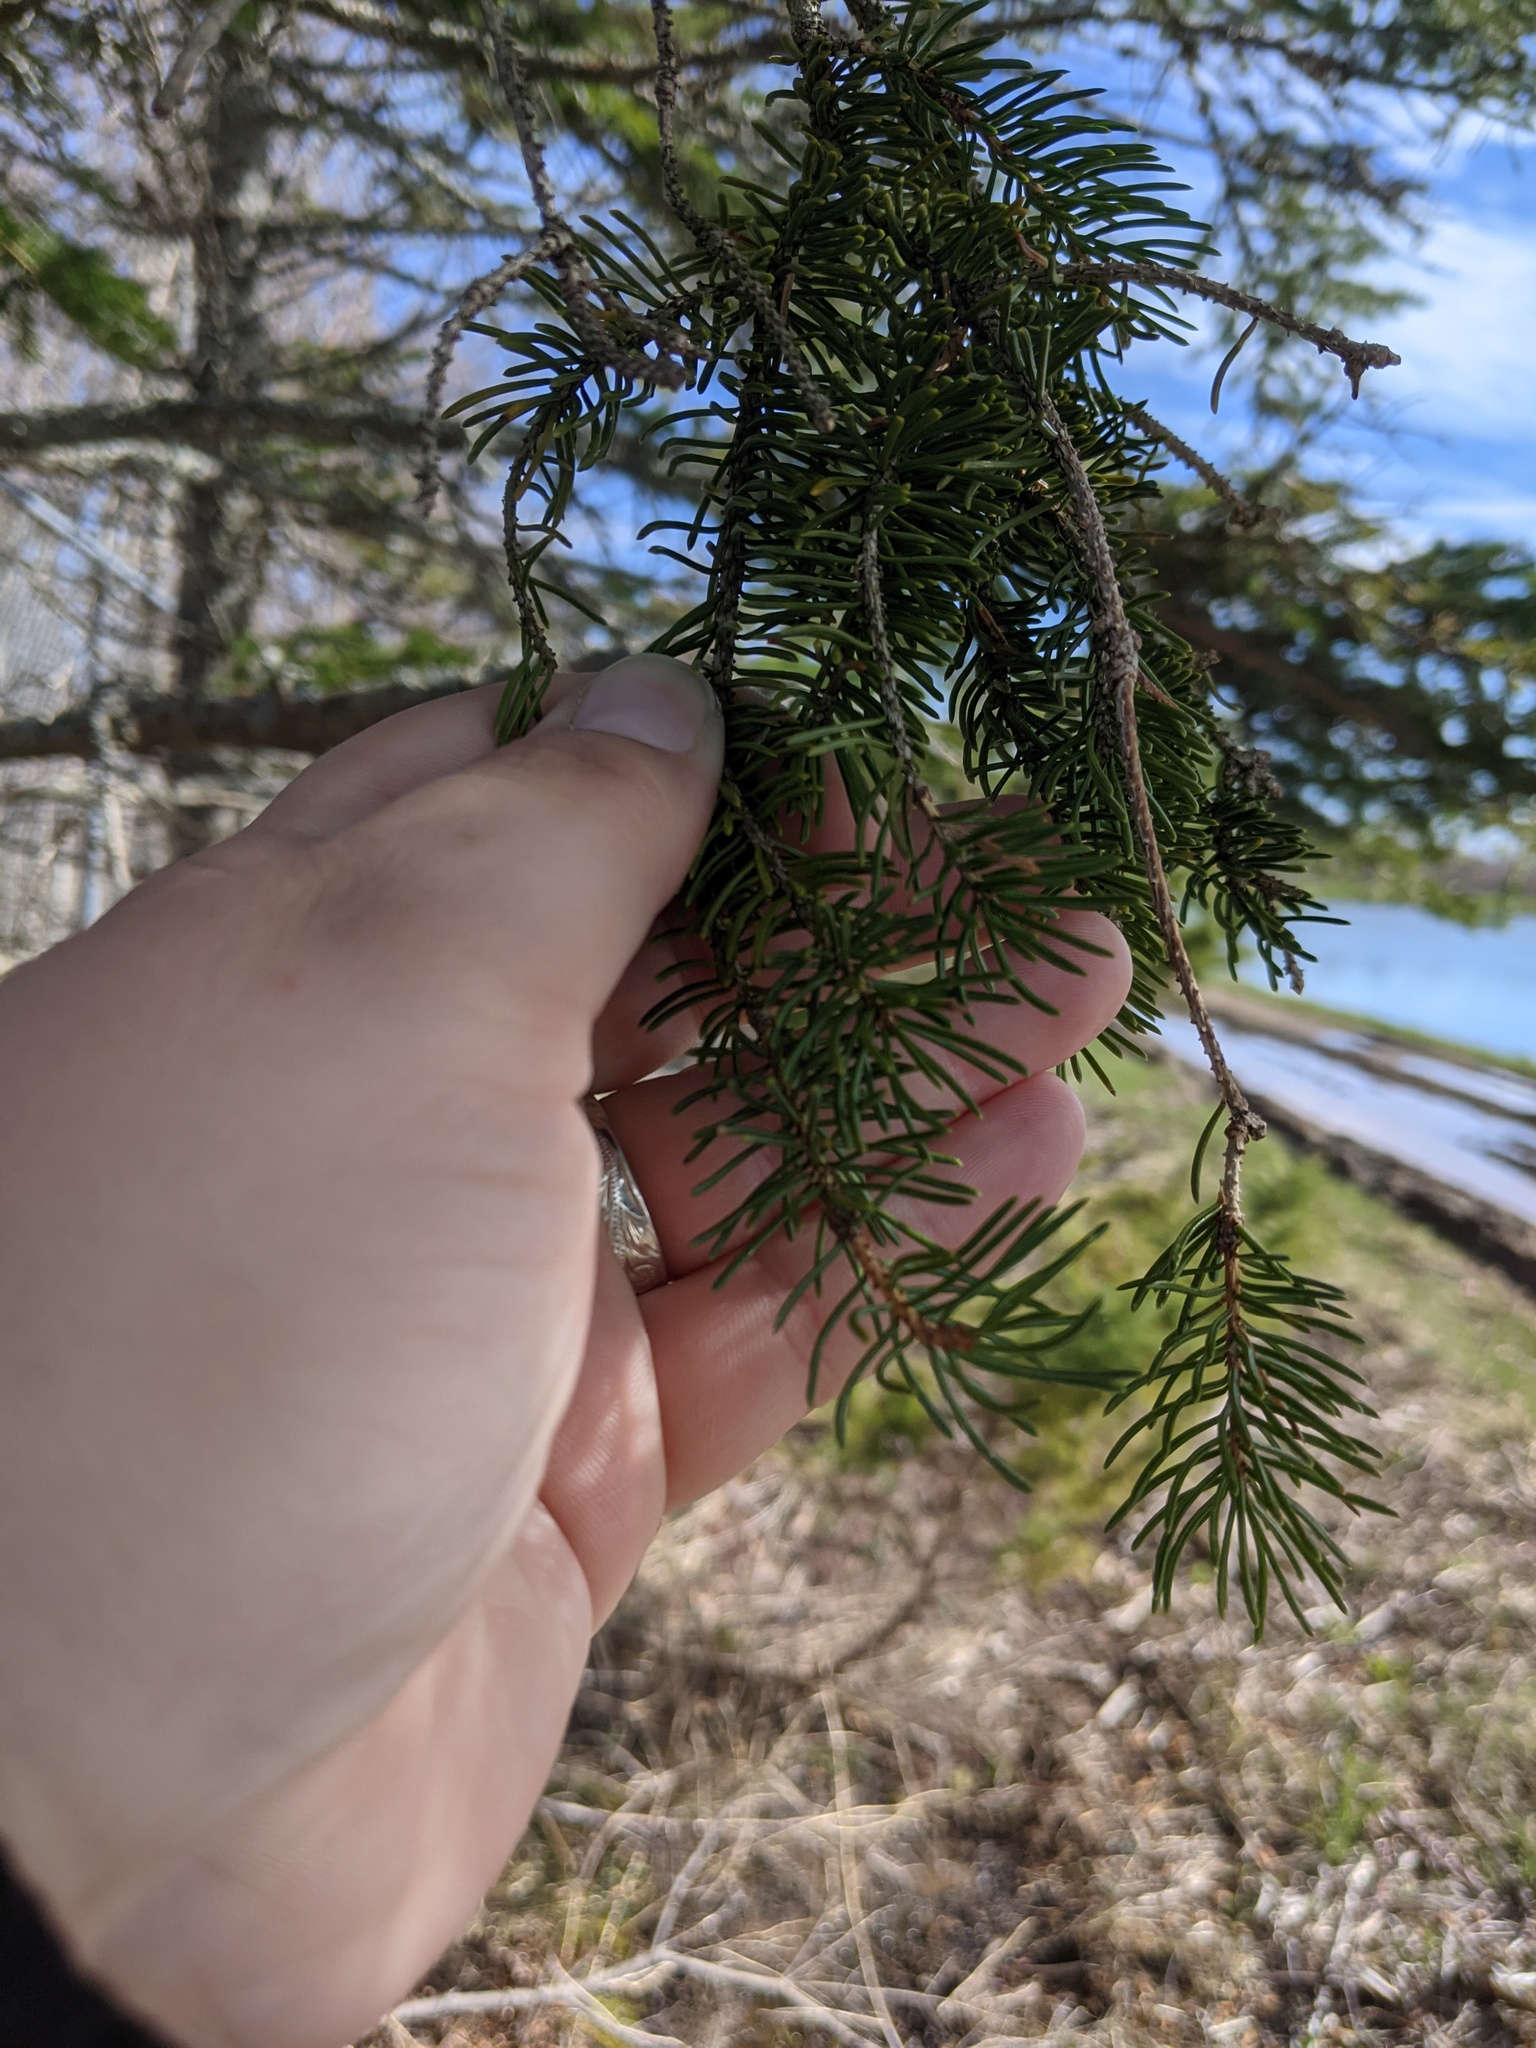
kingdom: Plantae
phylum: Tracheophyta
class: Pinopsida
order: Pinales
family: Pinaceae
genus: Picea
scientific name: Picea glauca
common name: White spruce
